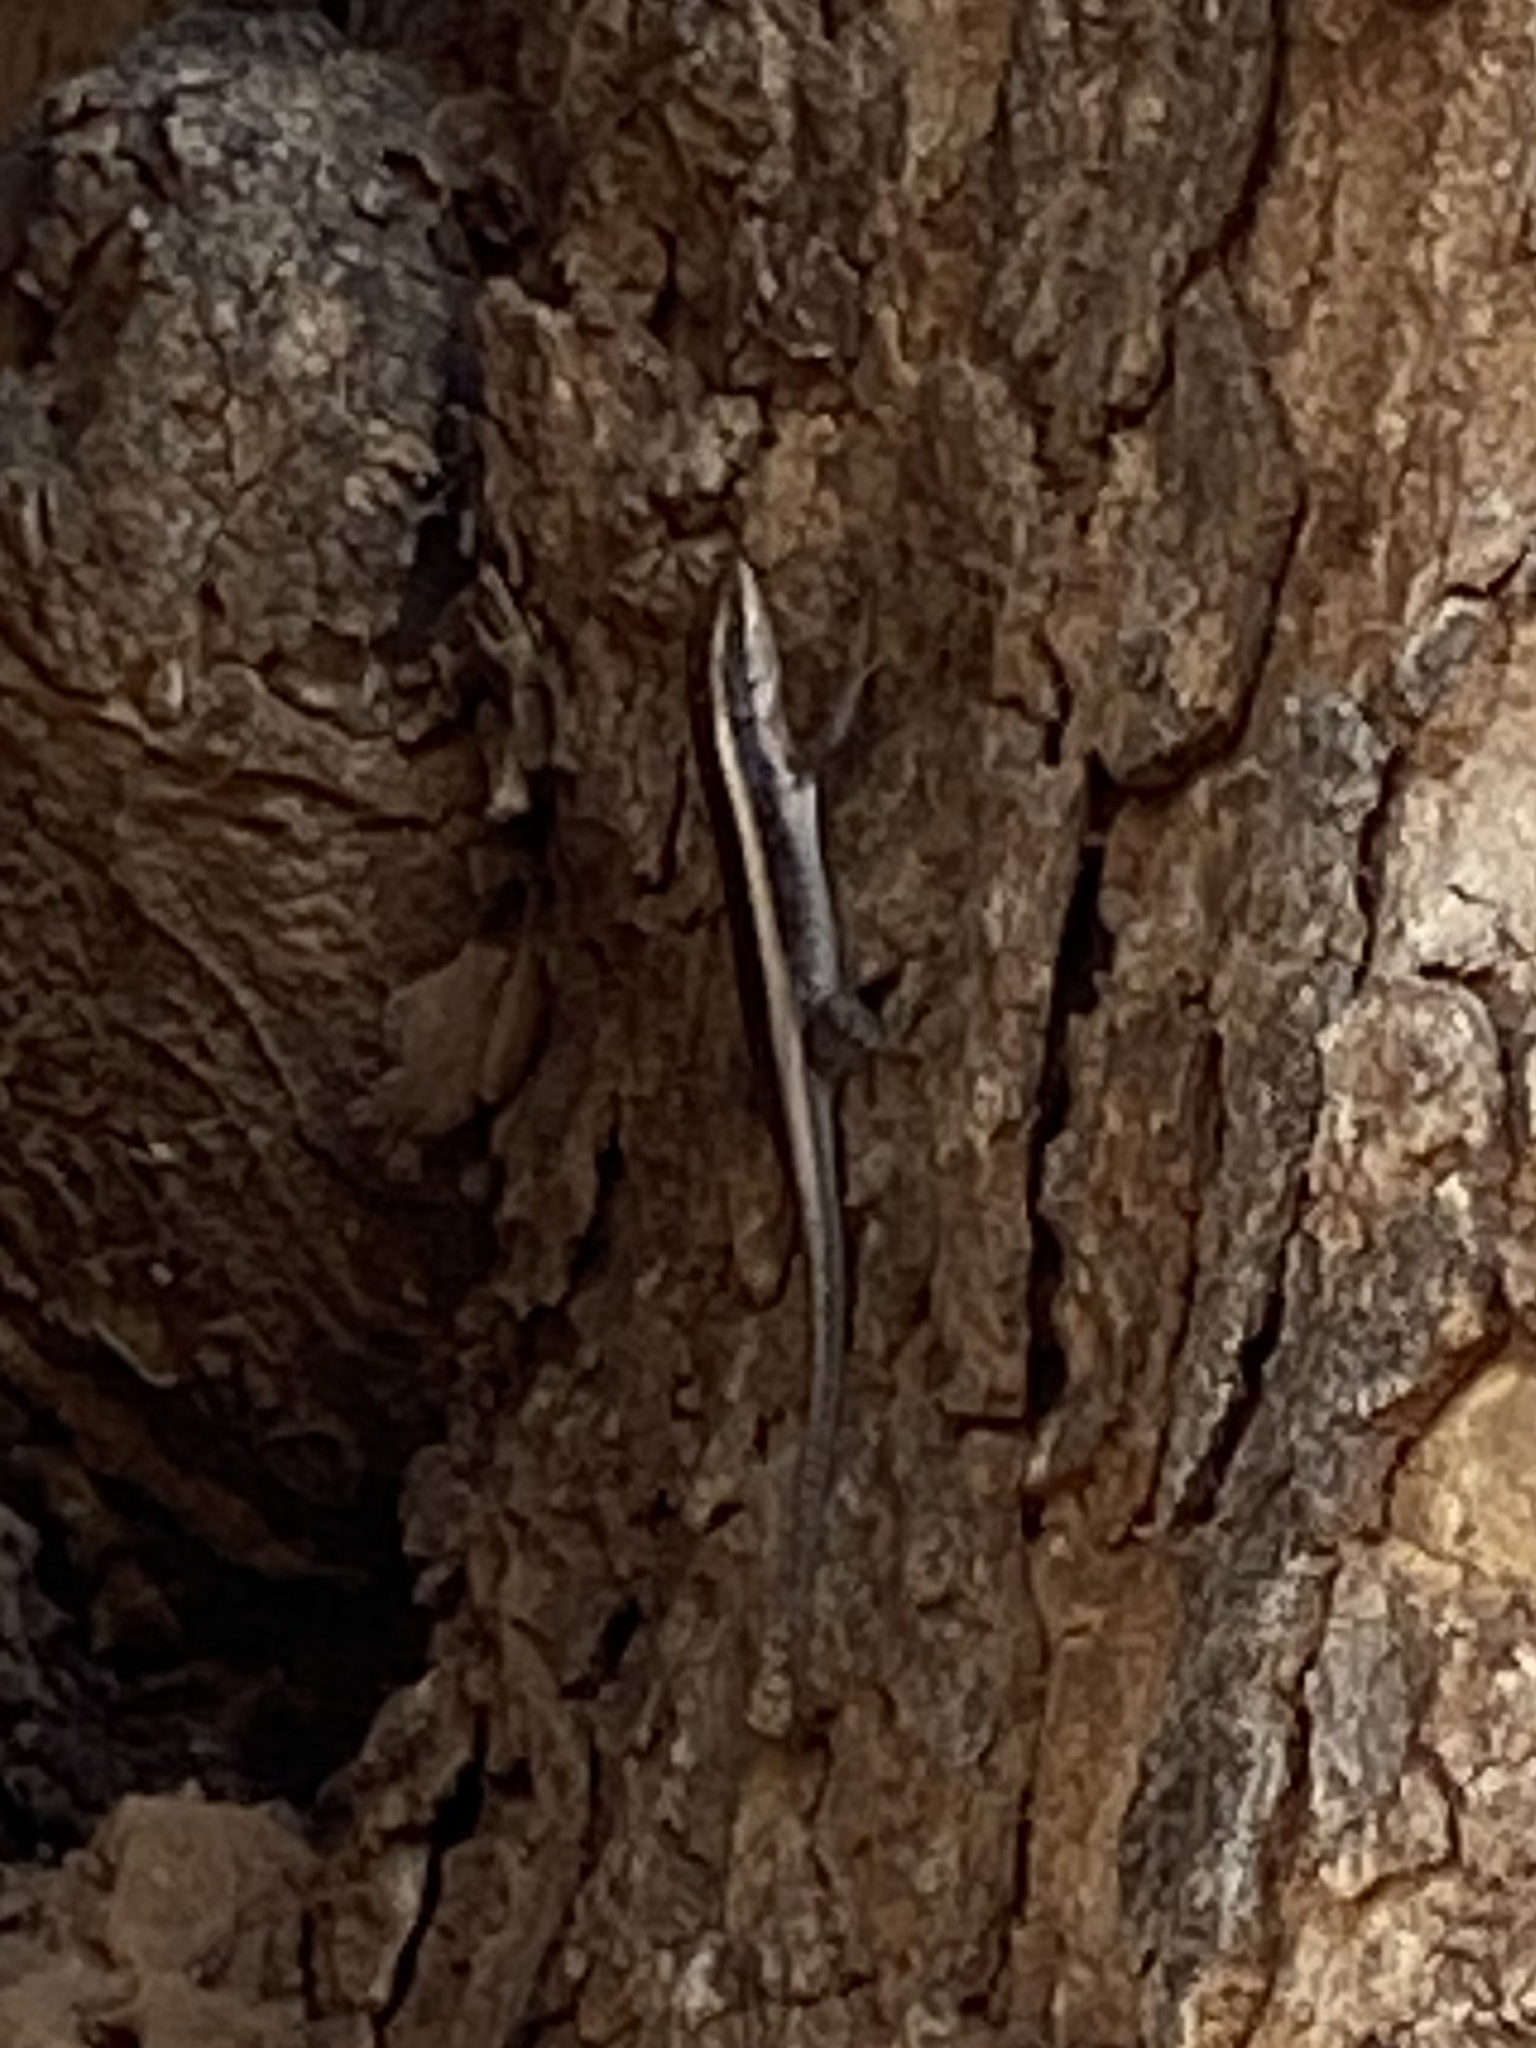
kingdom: Animalia
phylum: Chordata
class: Squamata
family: Scincidae
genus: Trachylepis
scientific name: Trachylepis striata
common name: African striped mabuya
